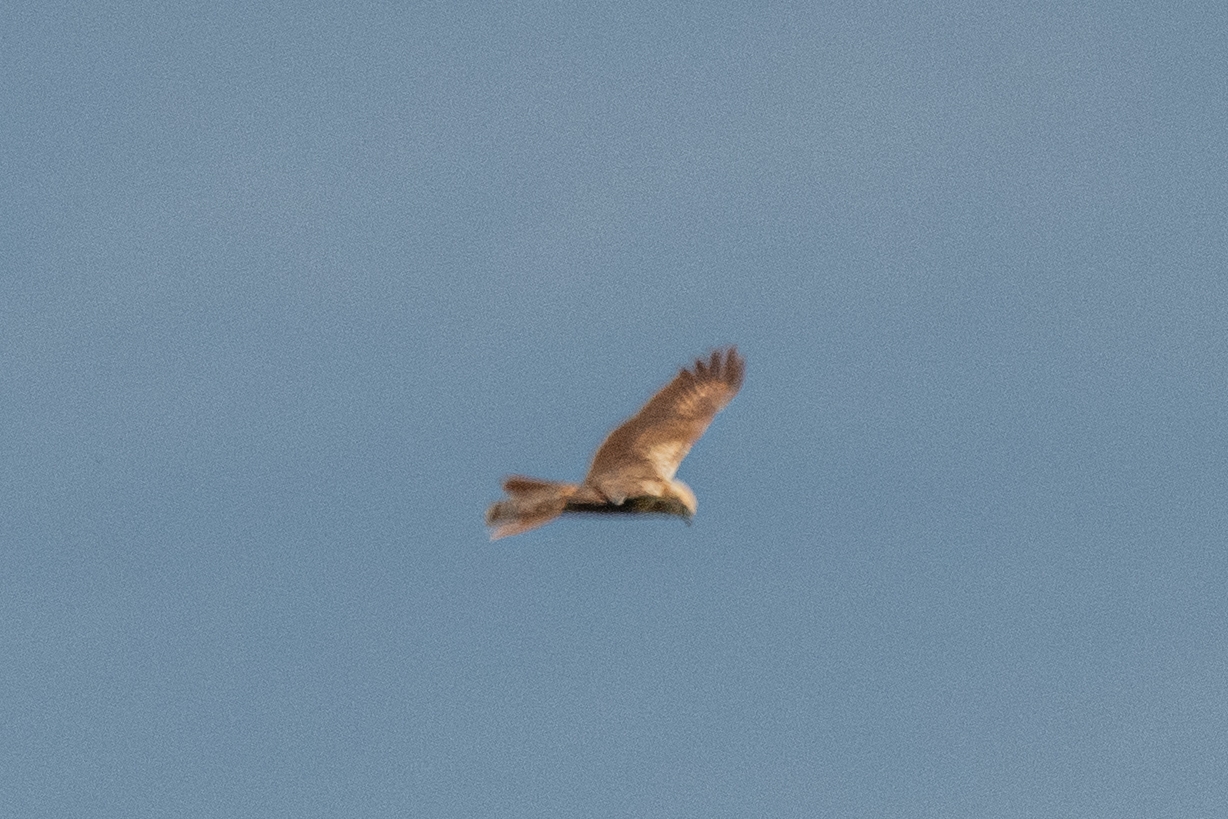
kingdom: Animalia
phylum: Chordata
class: Aves
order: Accipitriformes
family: Accipitridae
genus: Circus
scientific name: Circus aeruginosus
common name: Western marsh harrier
